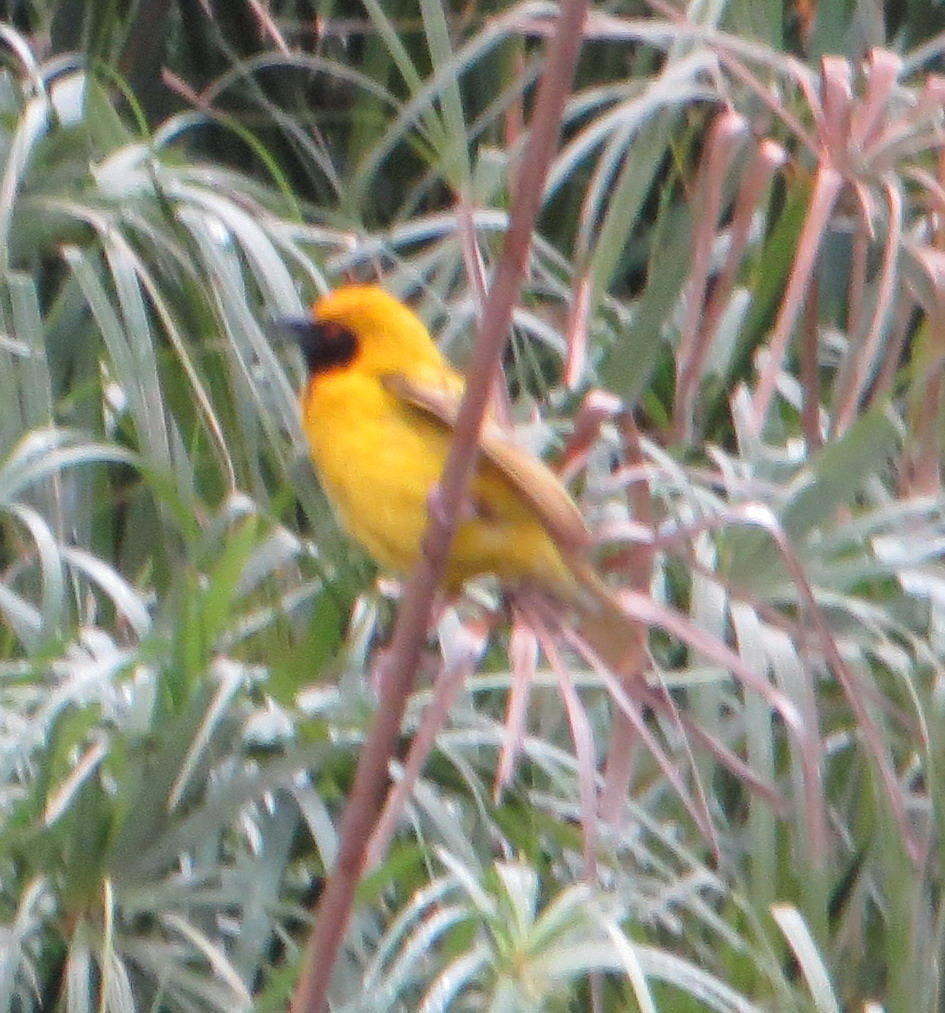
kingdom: Animalia
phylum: Chordata
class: Aves
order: Passeriformes
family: Ploceidae
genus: Ploceus
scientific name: Ploceus velatus
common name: Southern masked weaver
